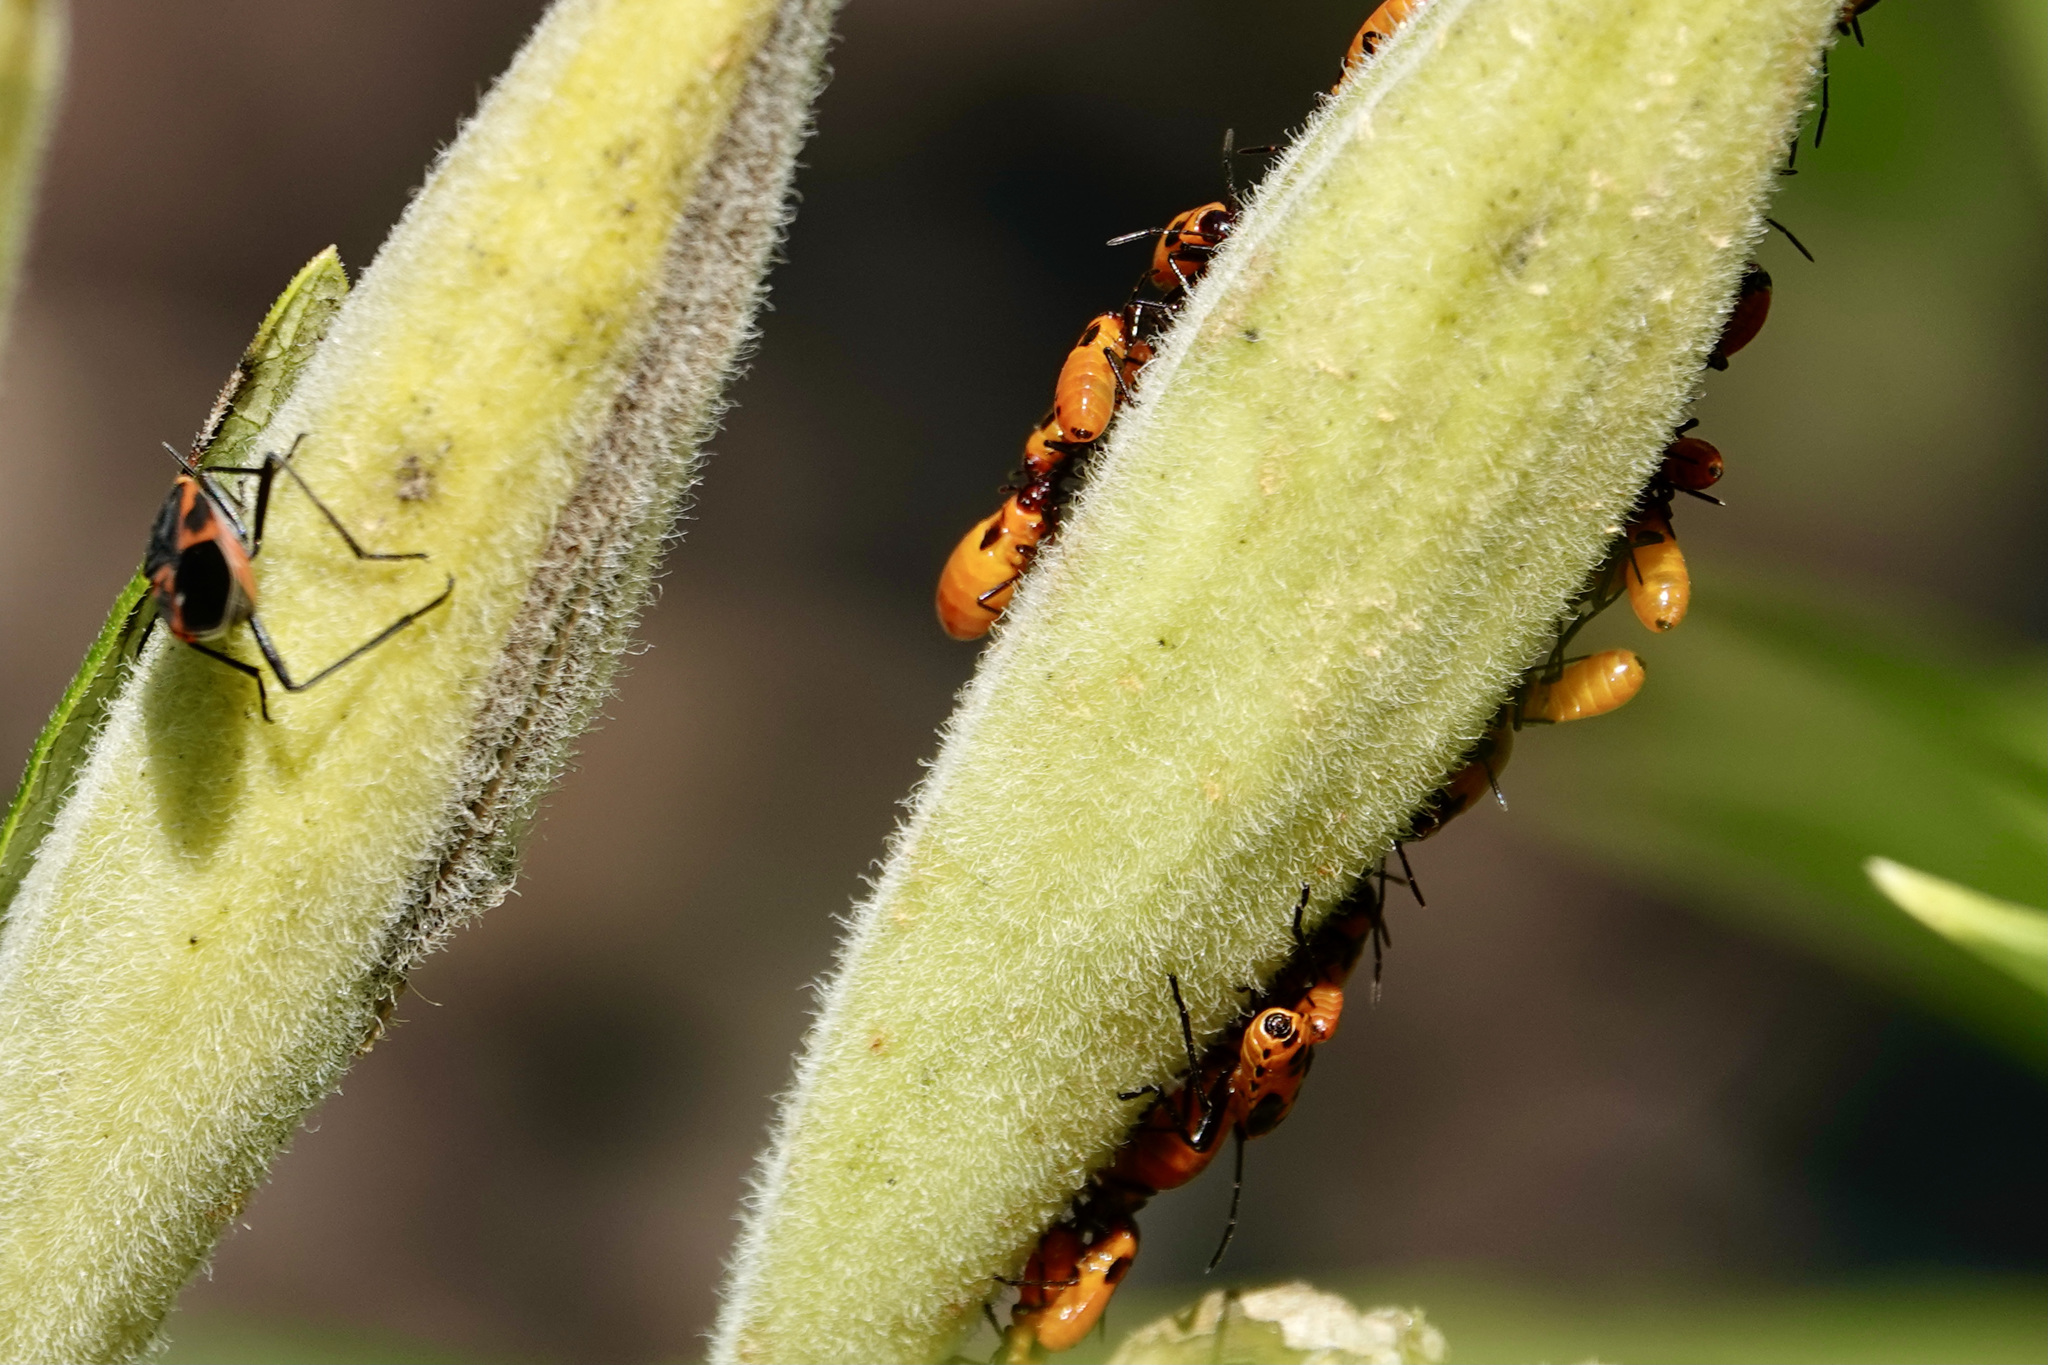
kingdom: Animalia
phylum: Arthropoda
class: Insecta
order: Hemiptera
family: Lygaeidae
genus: Lygaeus
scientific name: Lygaeus kalmii
